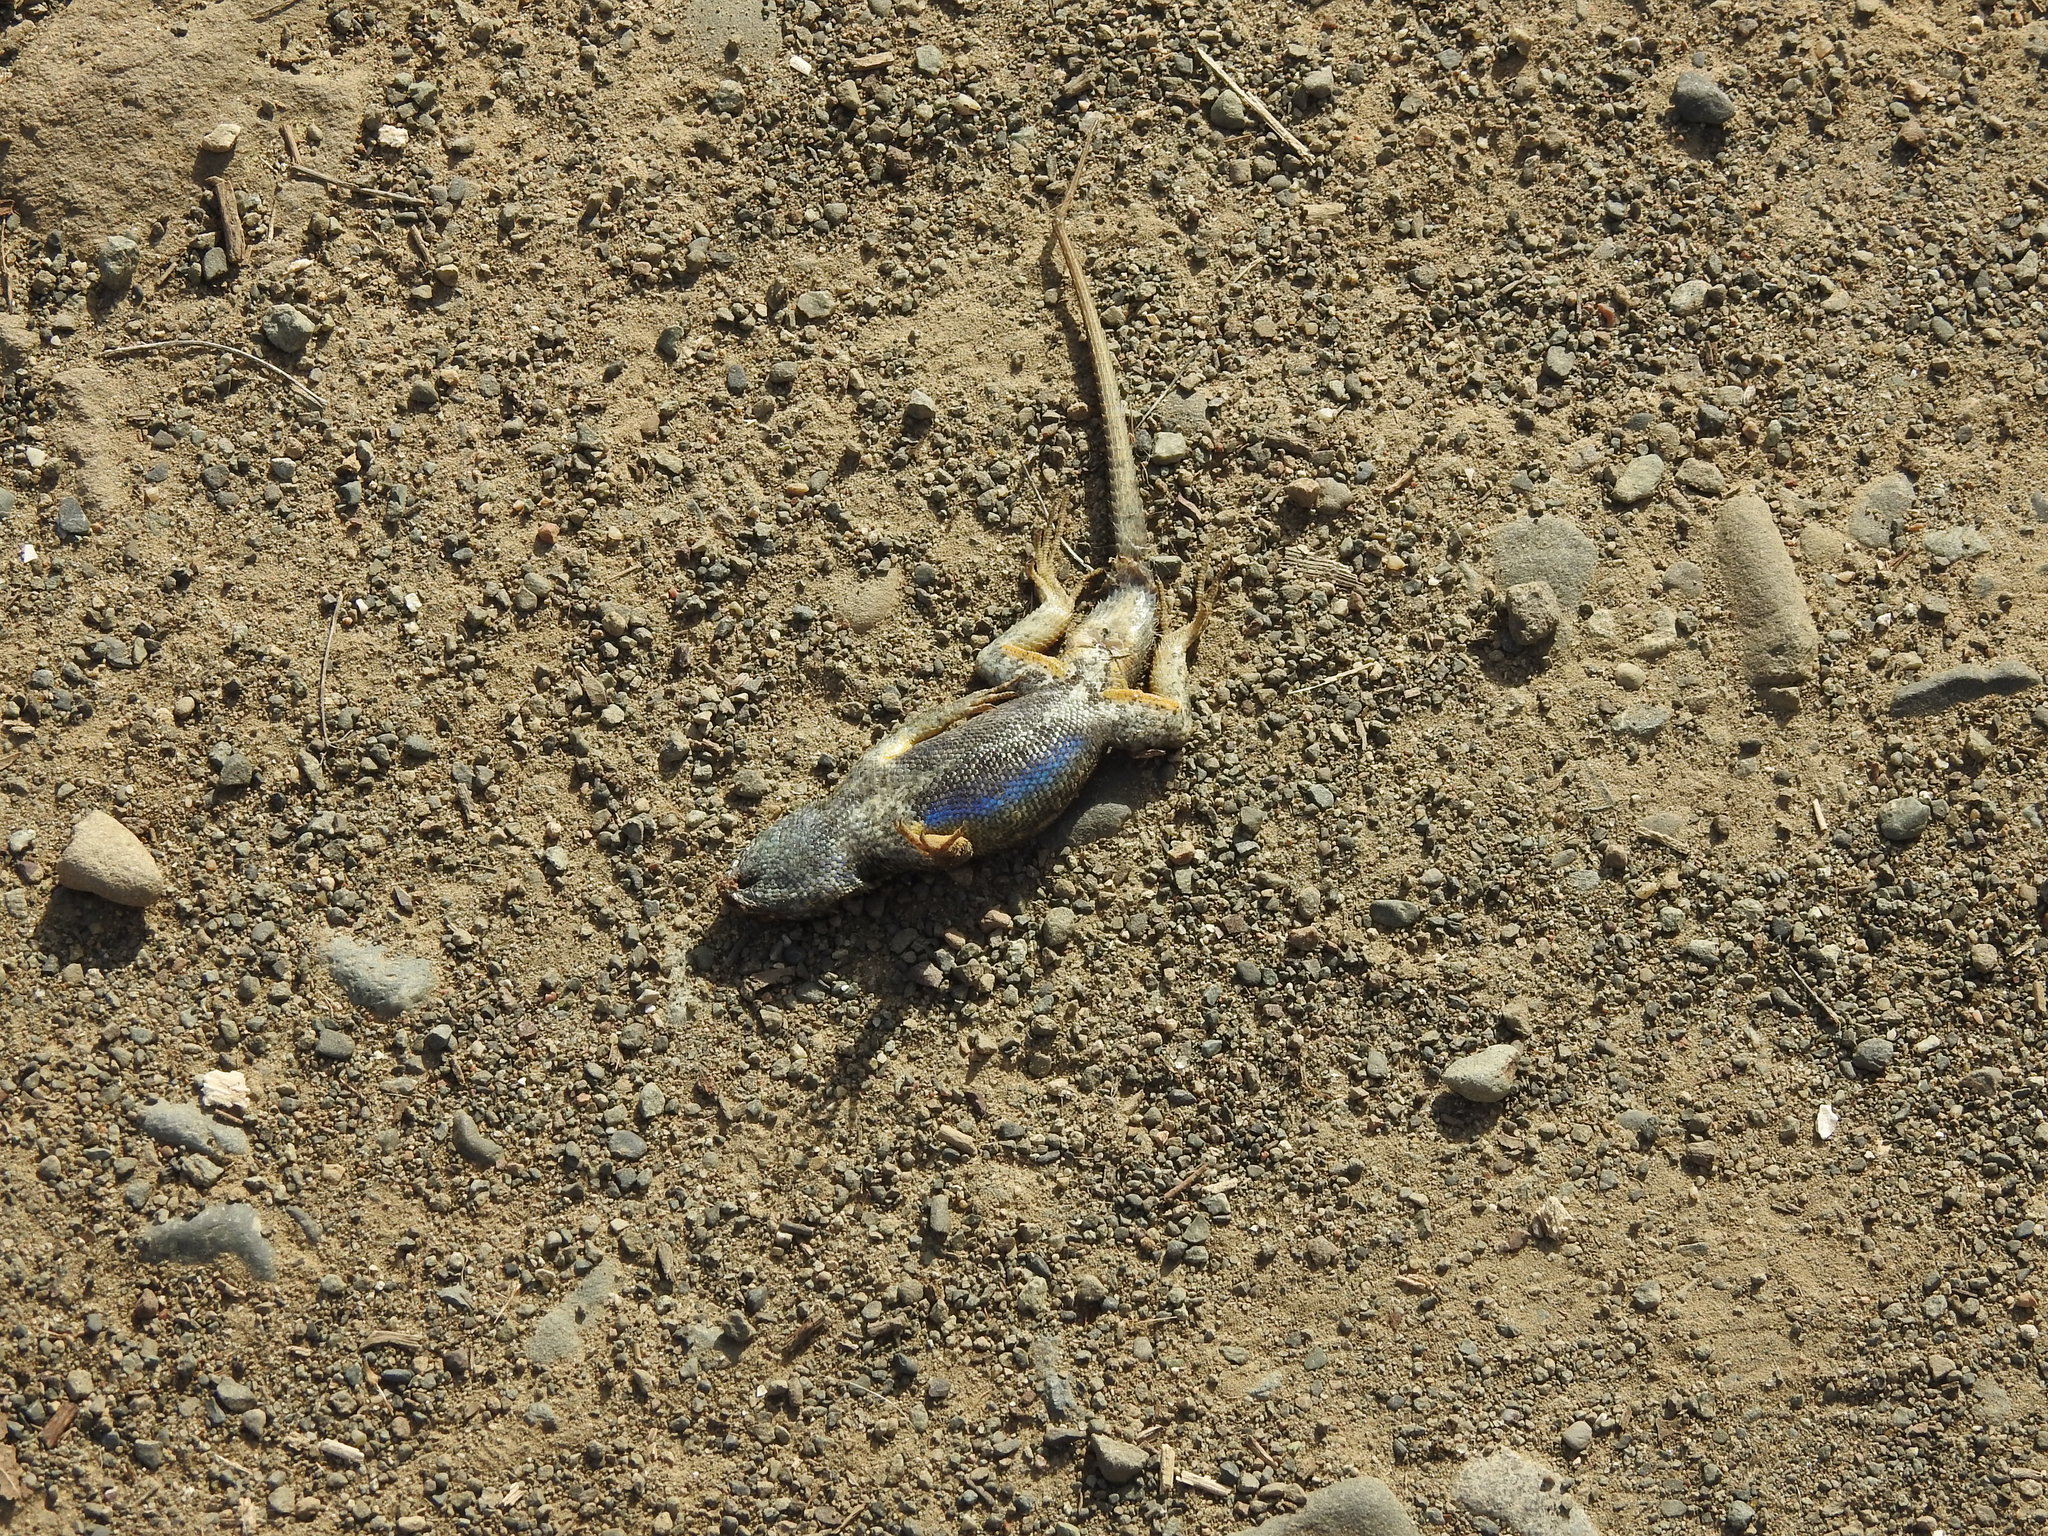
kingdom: Animalia
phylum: Chordata
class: Squamata
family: Phrynosomatidae
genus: Sceloporus
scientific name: Sceloporus occidentalis
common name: Western fence lizard
